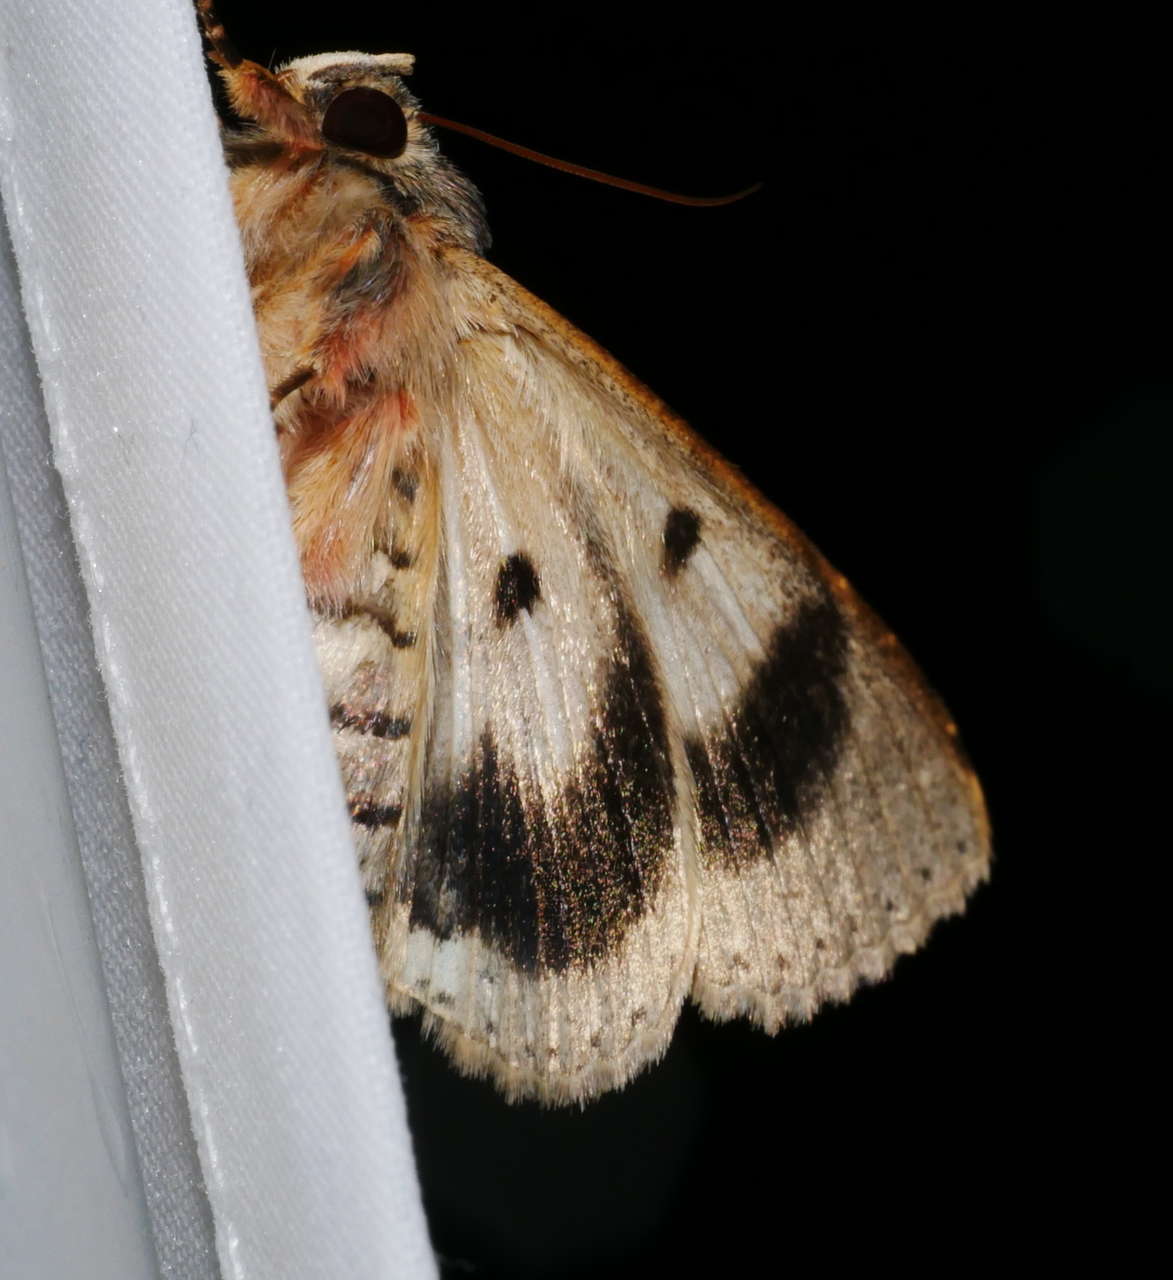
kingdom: Animalia
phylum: Arthropoda
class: Insecta
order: Lepidoptera
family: Erebidae
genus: Eudesmeola
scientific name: Eudesmeola lawsoni
